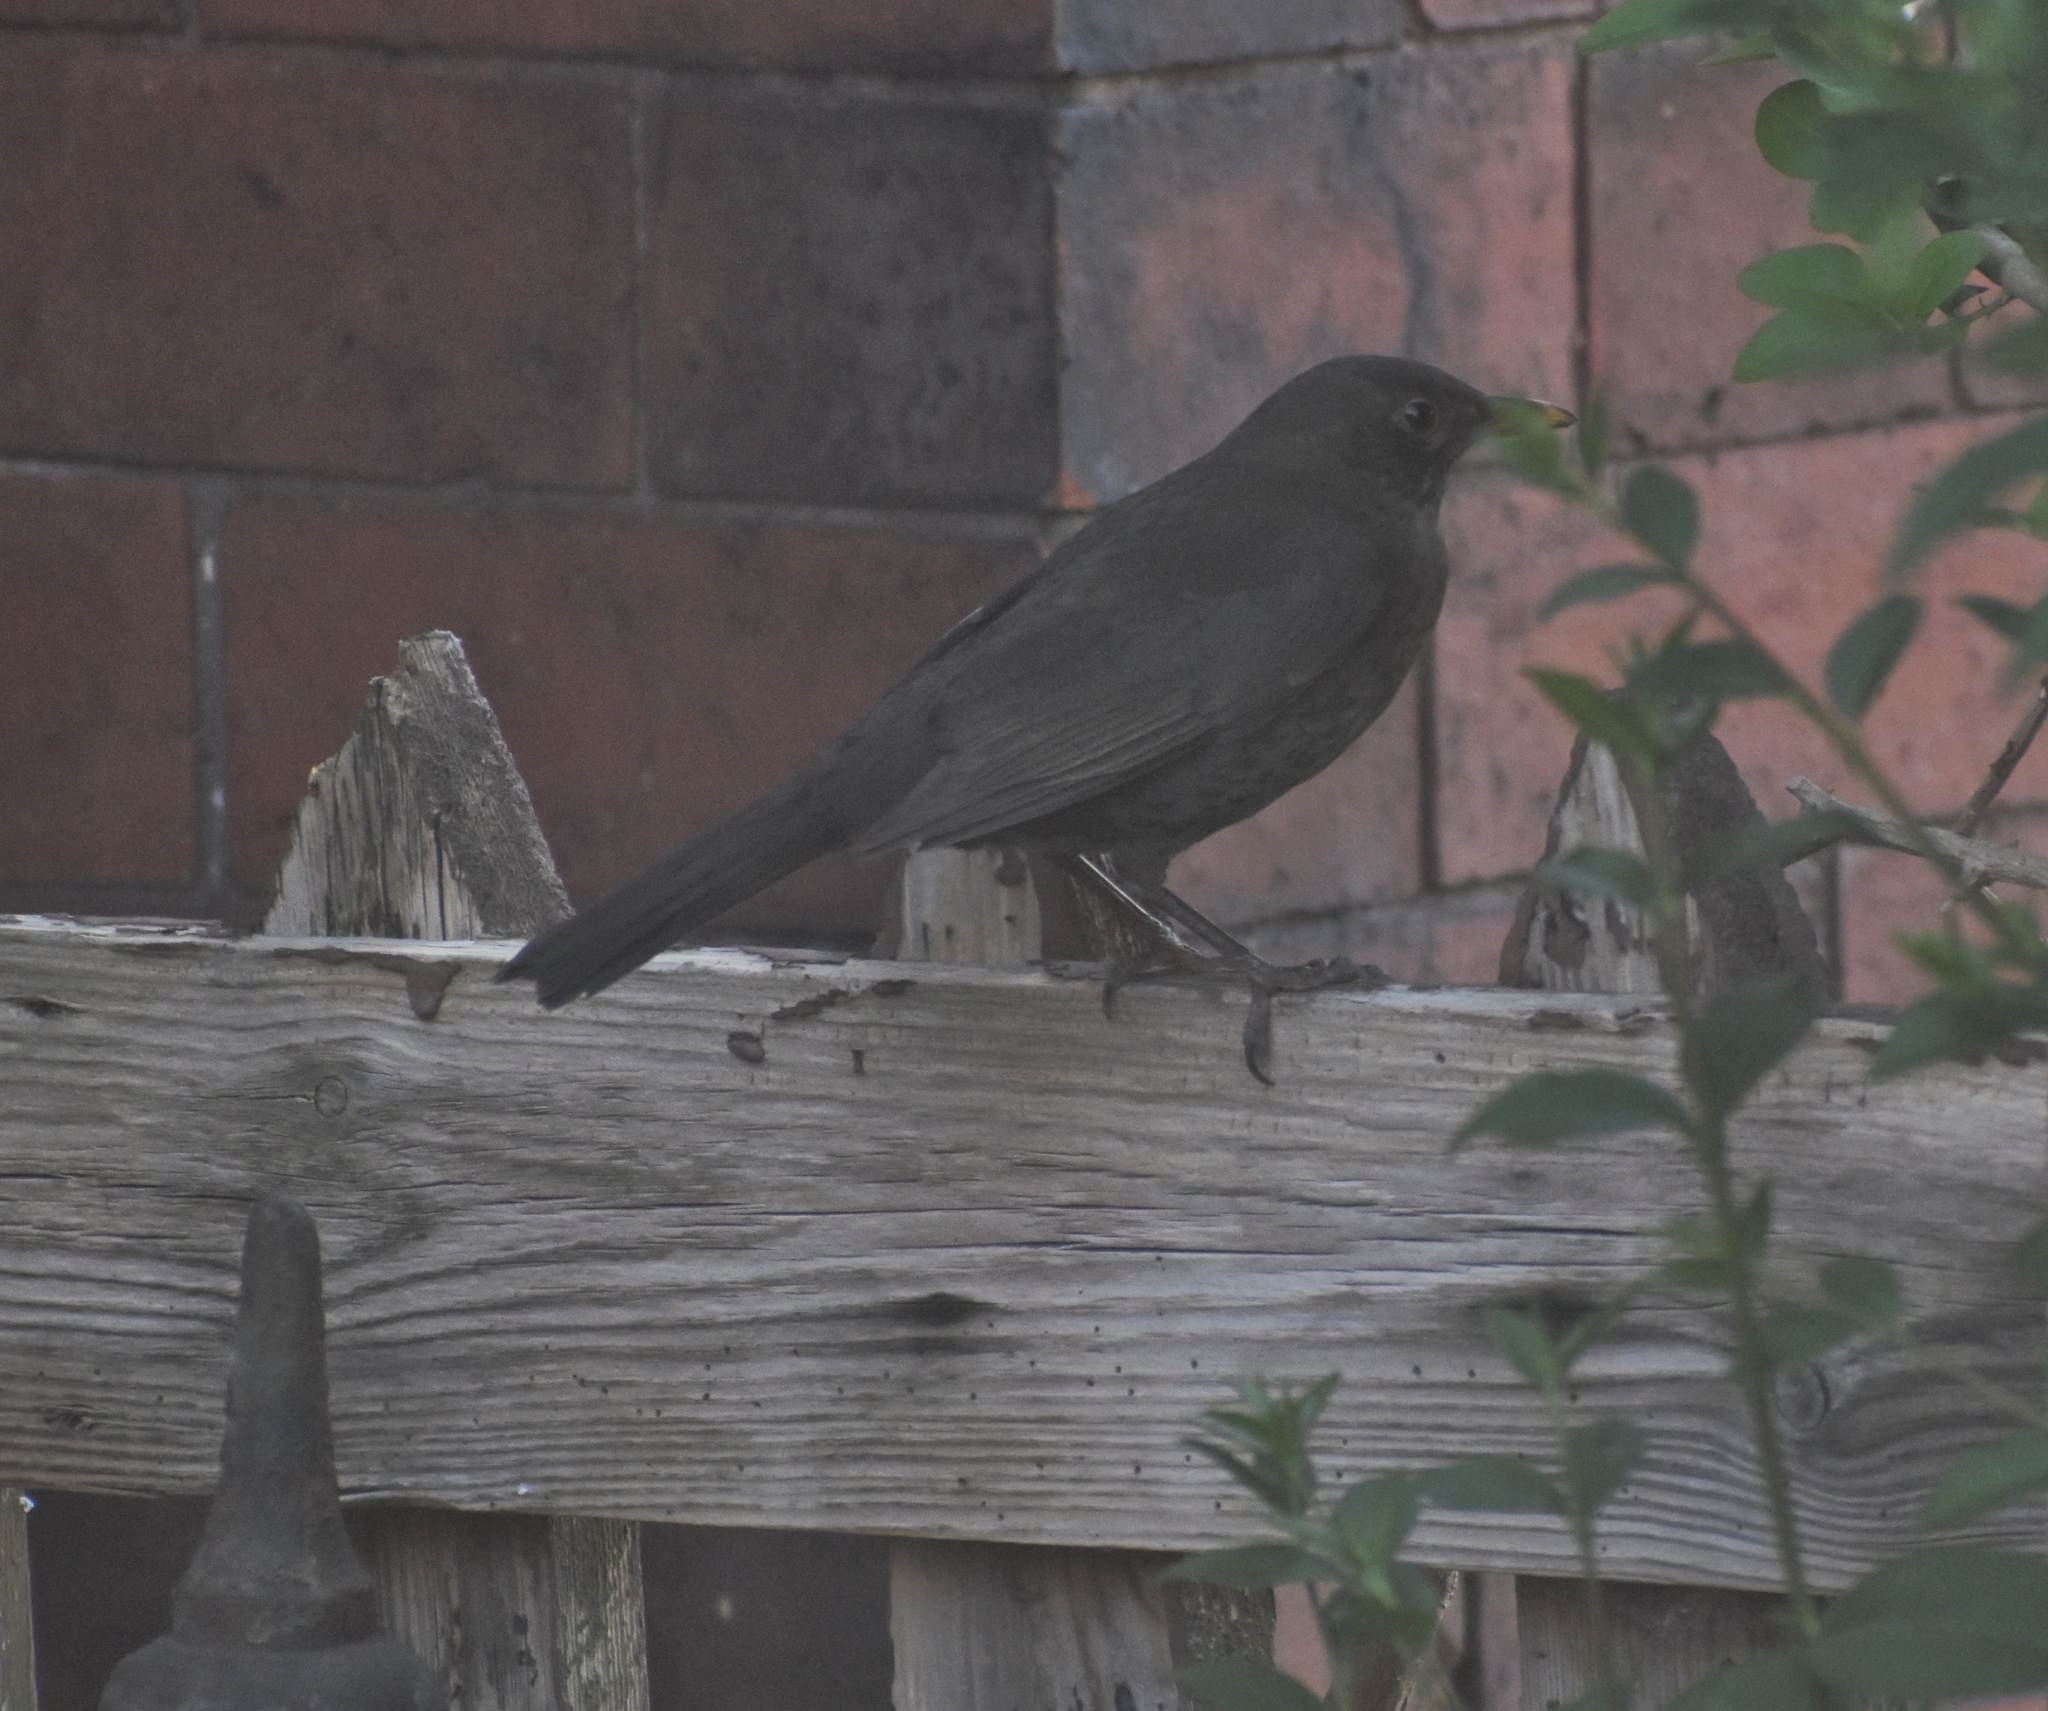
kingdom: Animalia
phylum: Chordata
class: Aves
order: Passeriformes
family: Turdidae
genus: Turdus
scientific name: Turdus merula
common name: Common blackbird
